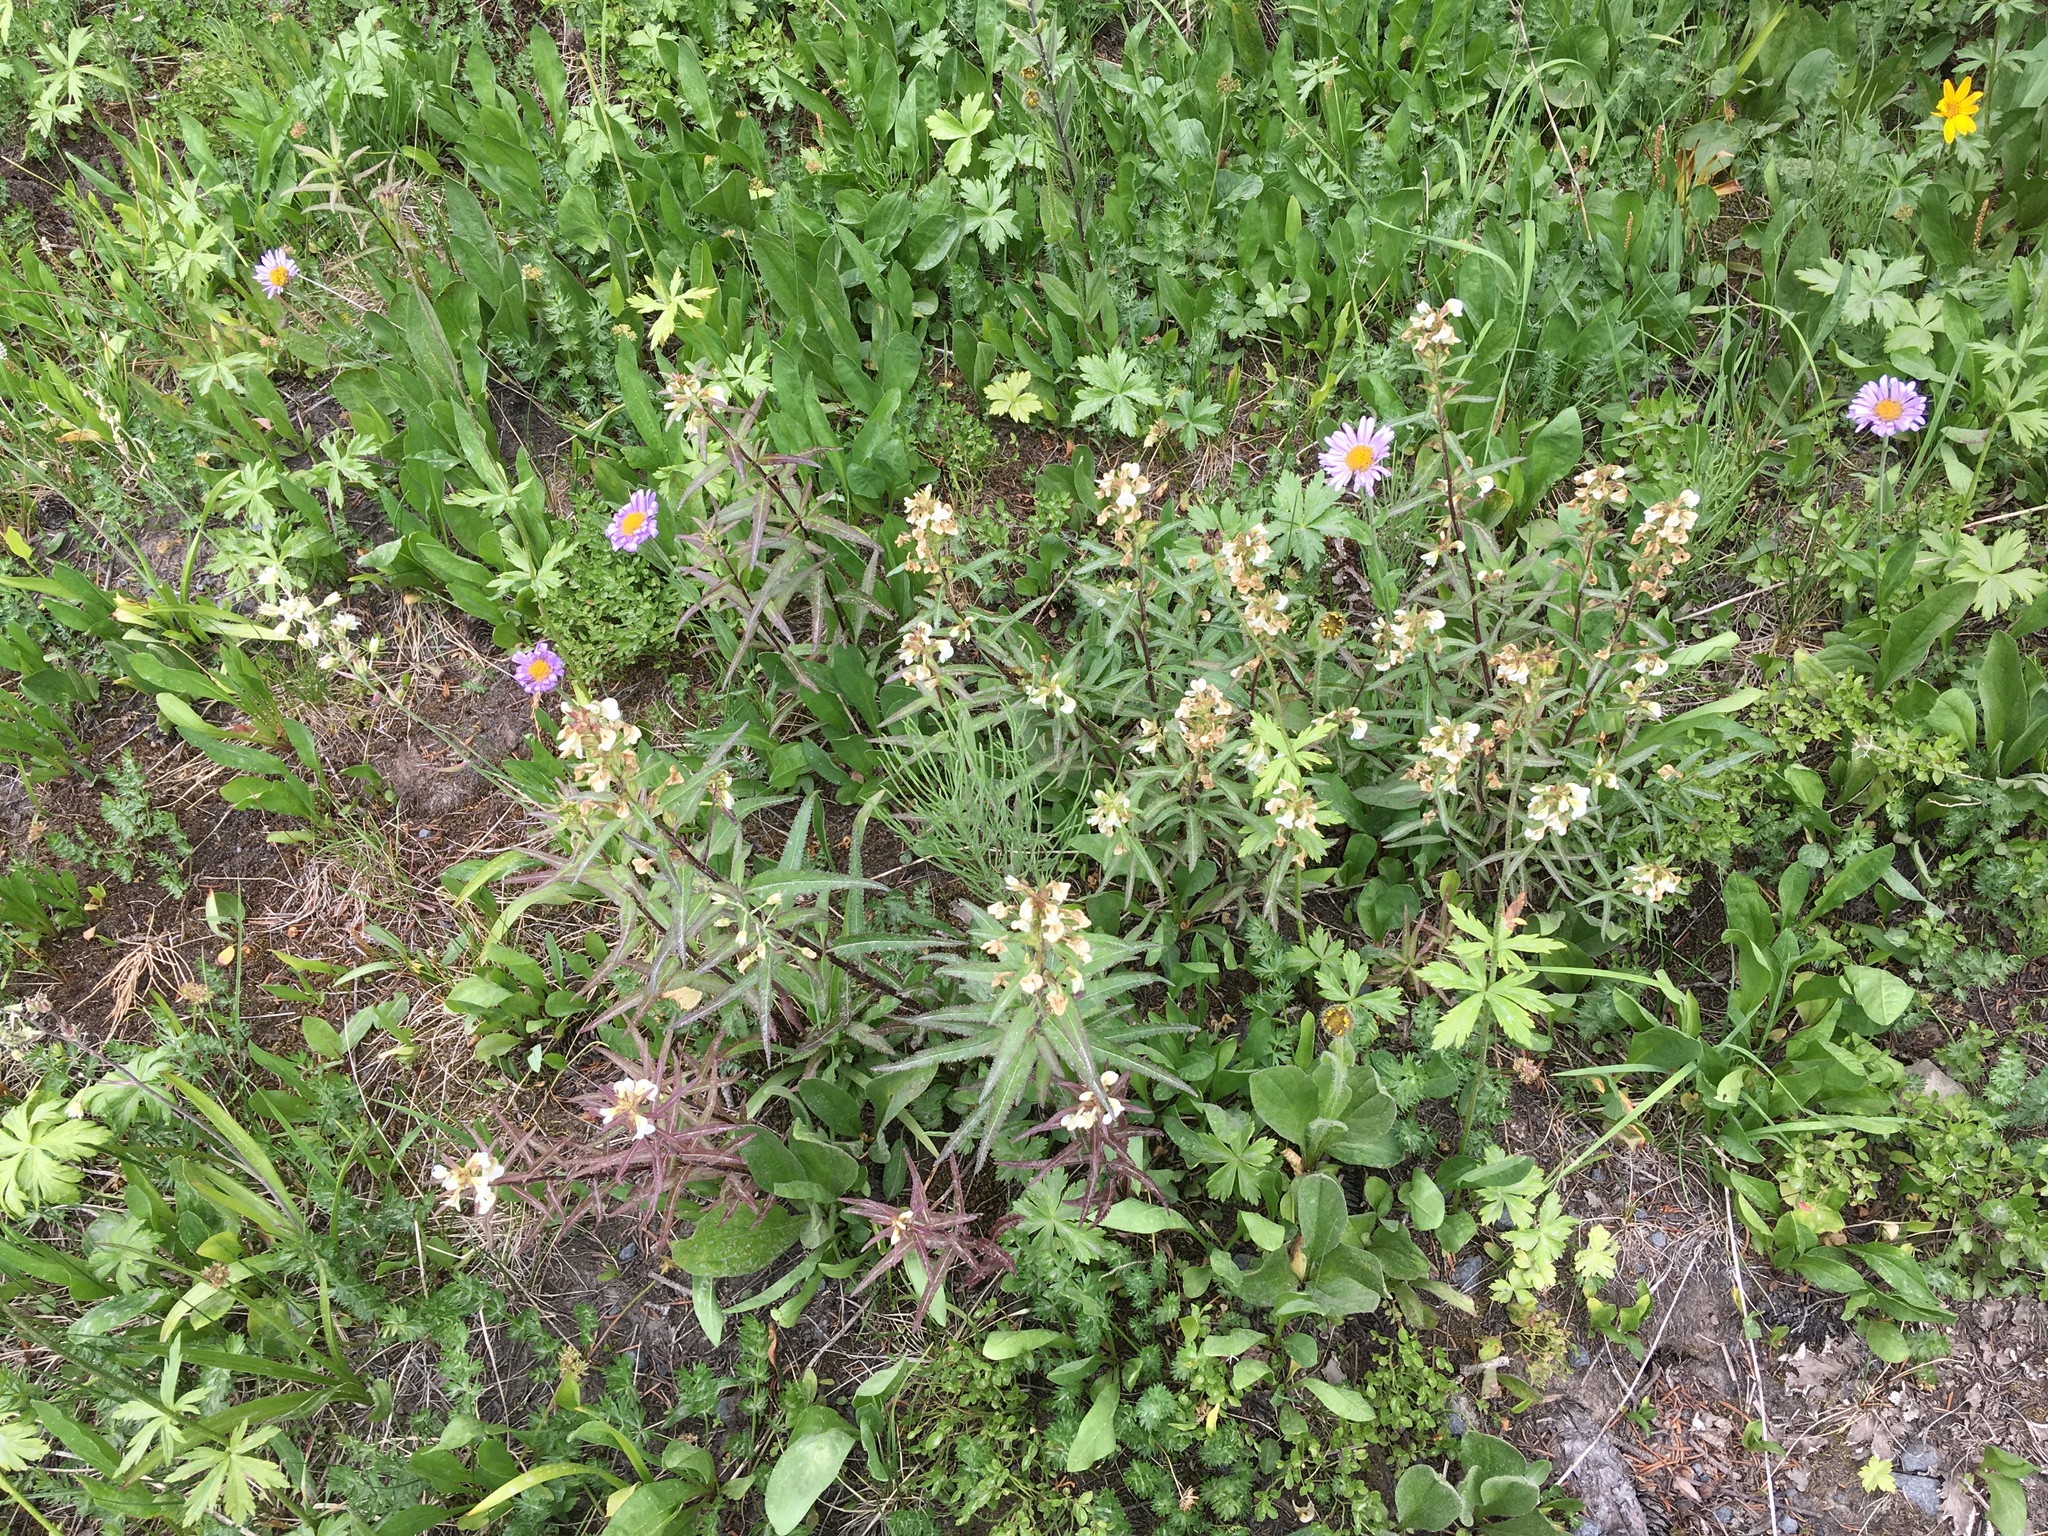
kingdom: Plantae
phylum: Tracheophyta
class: Magnoliopsida
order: Lamiales
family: Orobanchaceae
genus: Pedicularis
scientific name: Pedicularis racemosa
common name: Leafy lousewort
